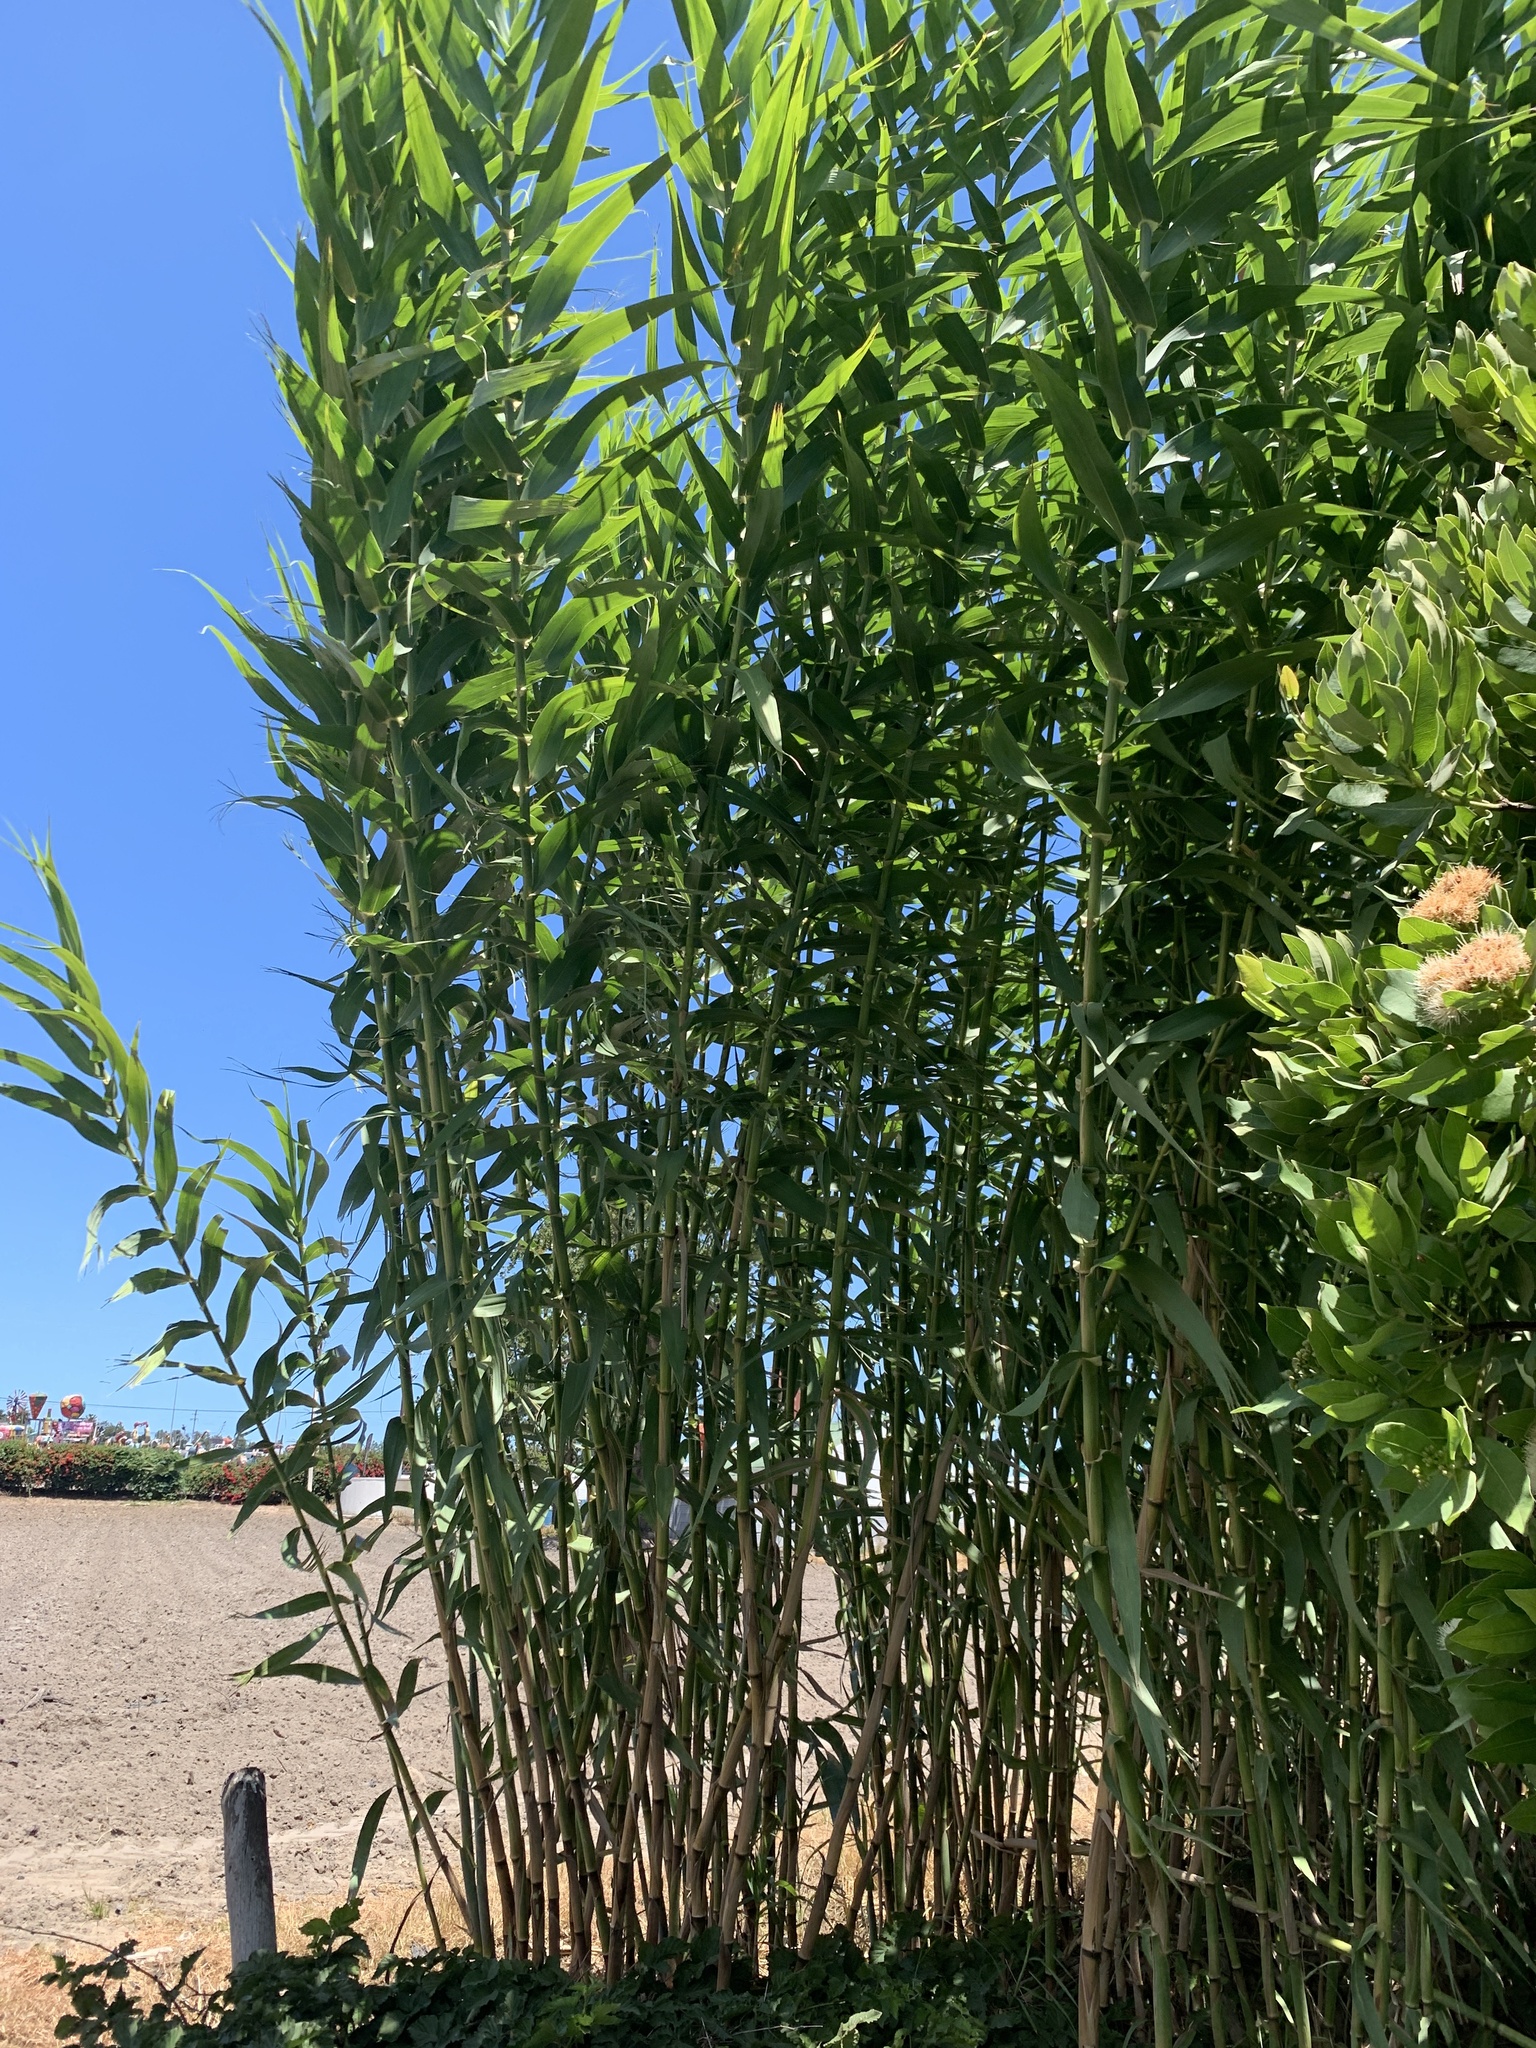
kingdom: Plantae
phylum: Tracheophyta
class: Liliopsida
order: Poales
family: Poaceae
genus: Arundo
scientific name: Arundo donax
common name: Giant reed
